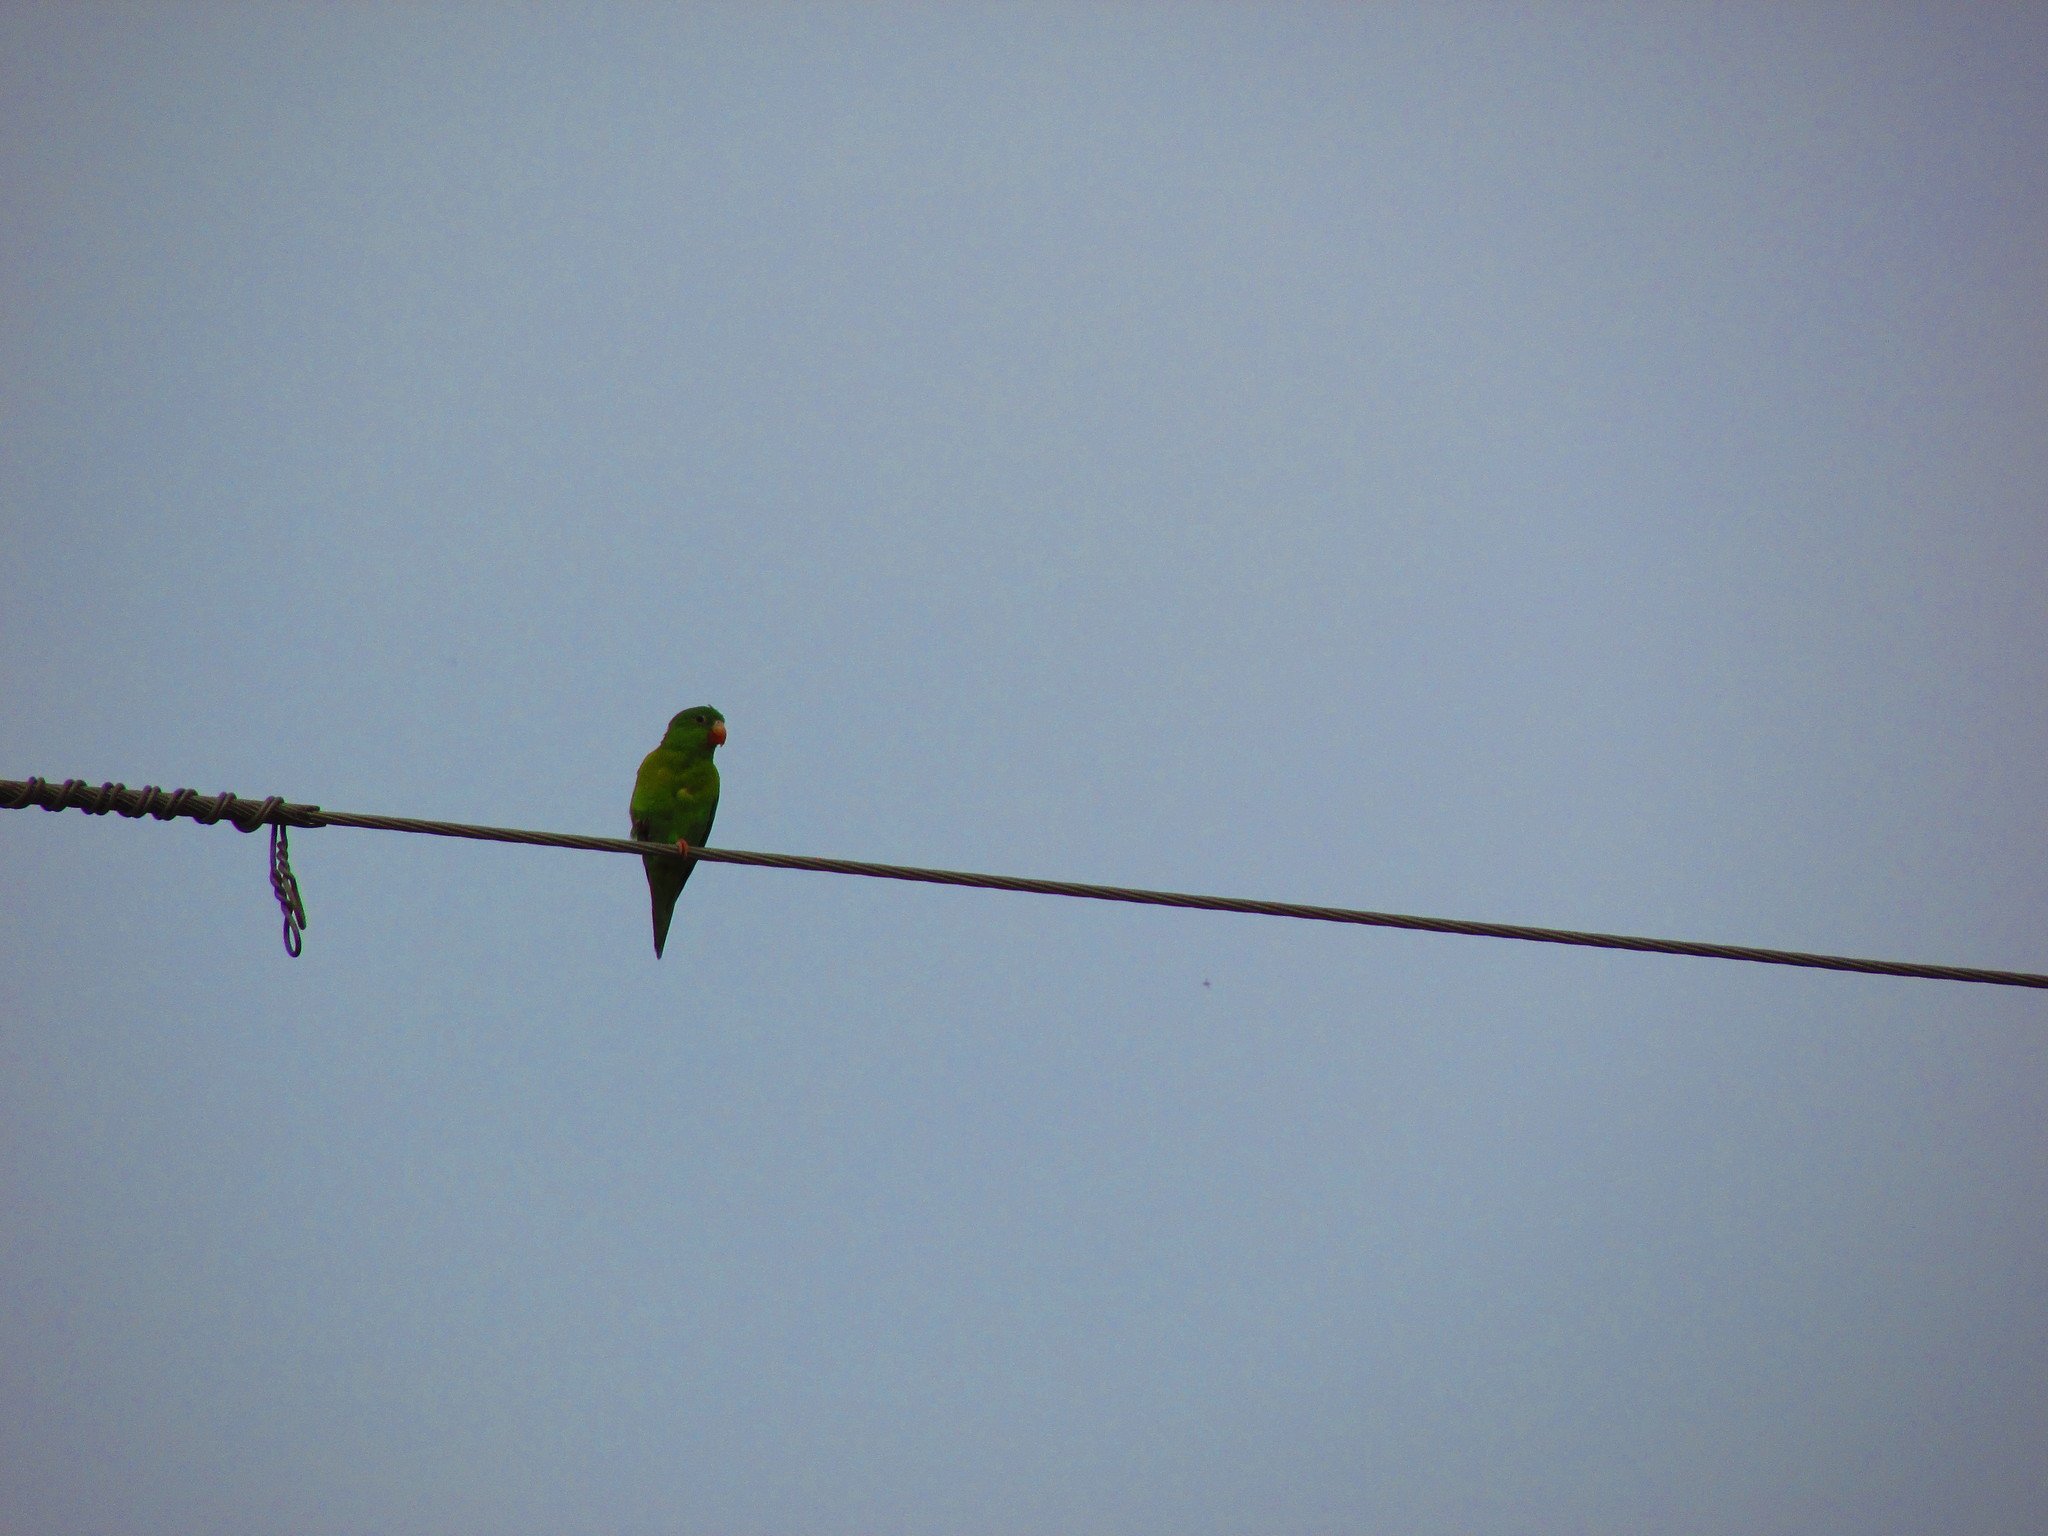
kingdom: Animalia
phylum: Chordata
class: Aves
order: Psittaciformes
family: Psittacidae
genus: Brotogeris
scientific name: Brotogeris jugularis
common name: Orange-chinned parakeet
